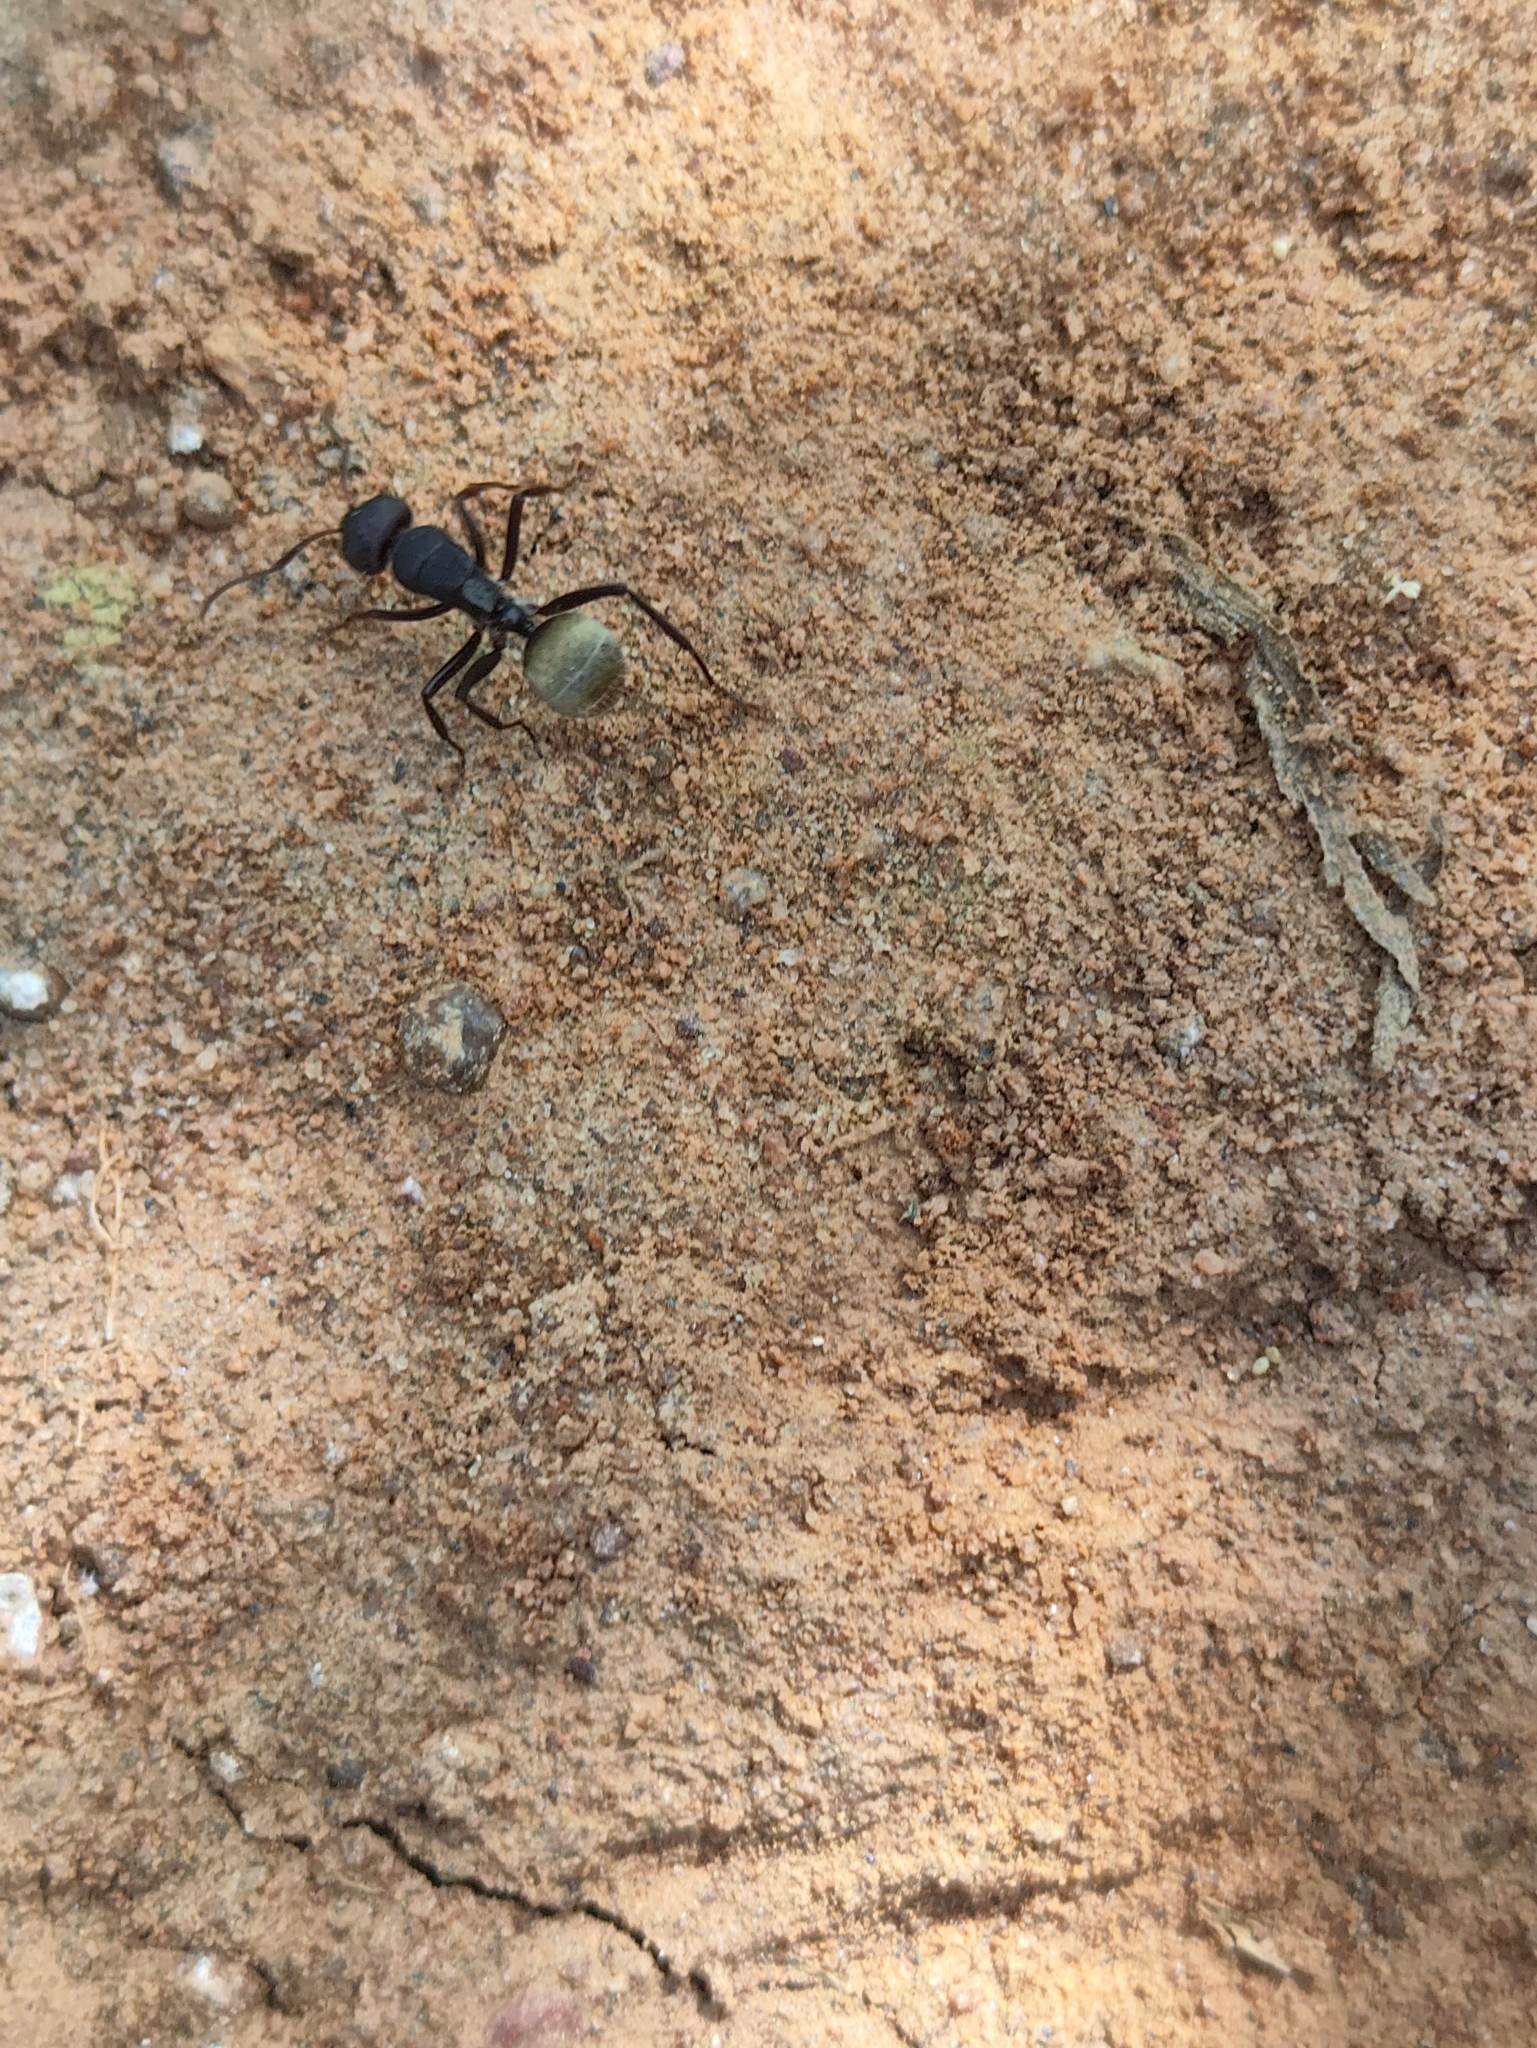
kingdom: Animalia
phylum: Arthropoda
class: Insecta
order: Hymenoptera
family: Formicidae
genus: Camponotus
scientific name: Camponotus sericeus
